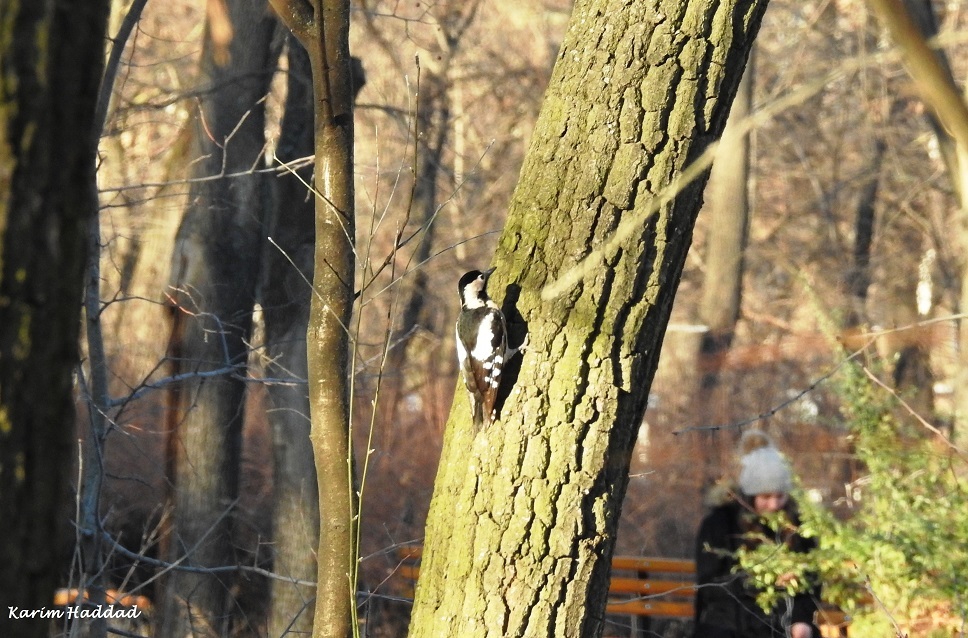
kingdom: Animalia
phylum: Chordata
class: Aves
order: Piciformes
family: Picidae
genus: Dendrocopos
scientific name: Dendrocopos syriacus
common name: Syrian woodpecker
